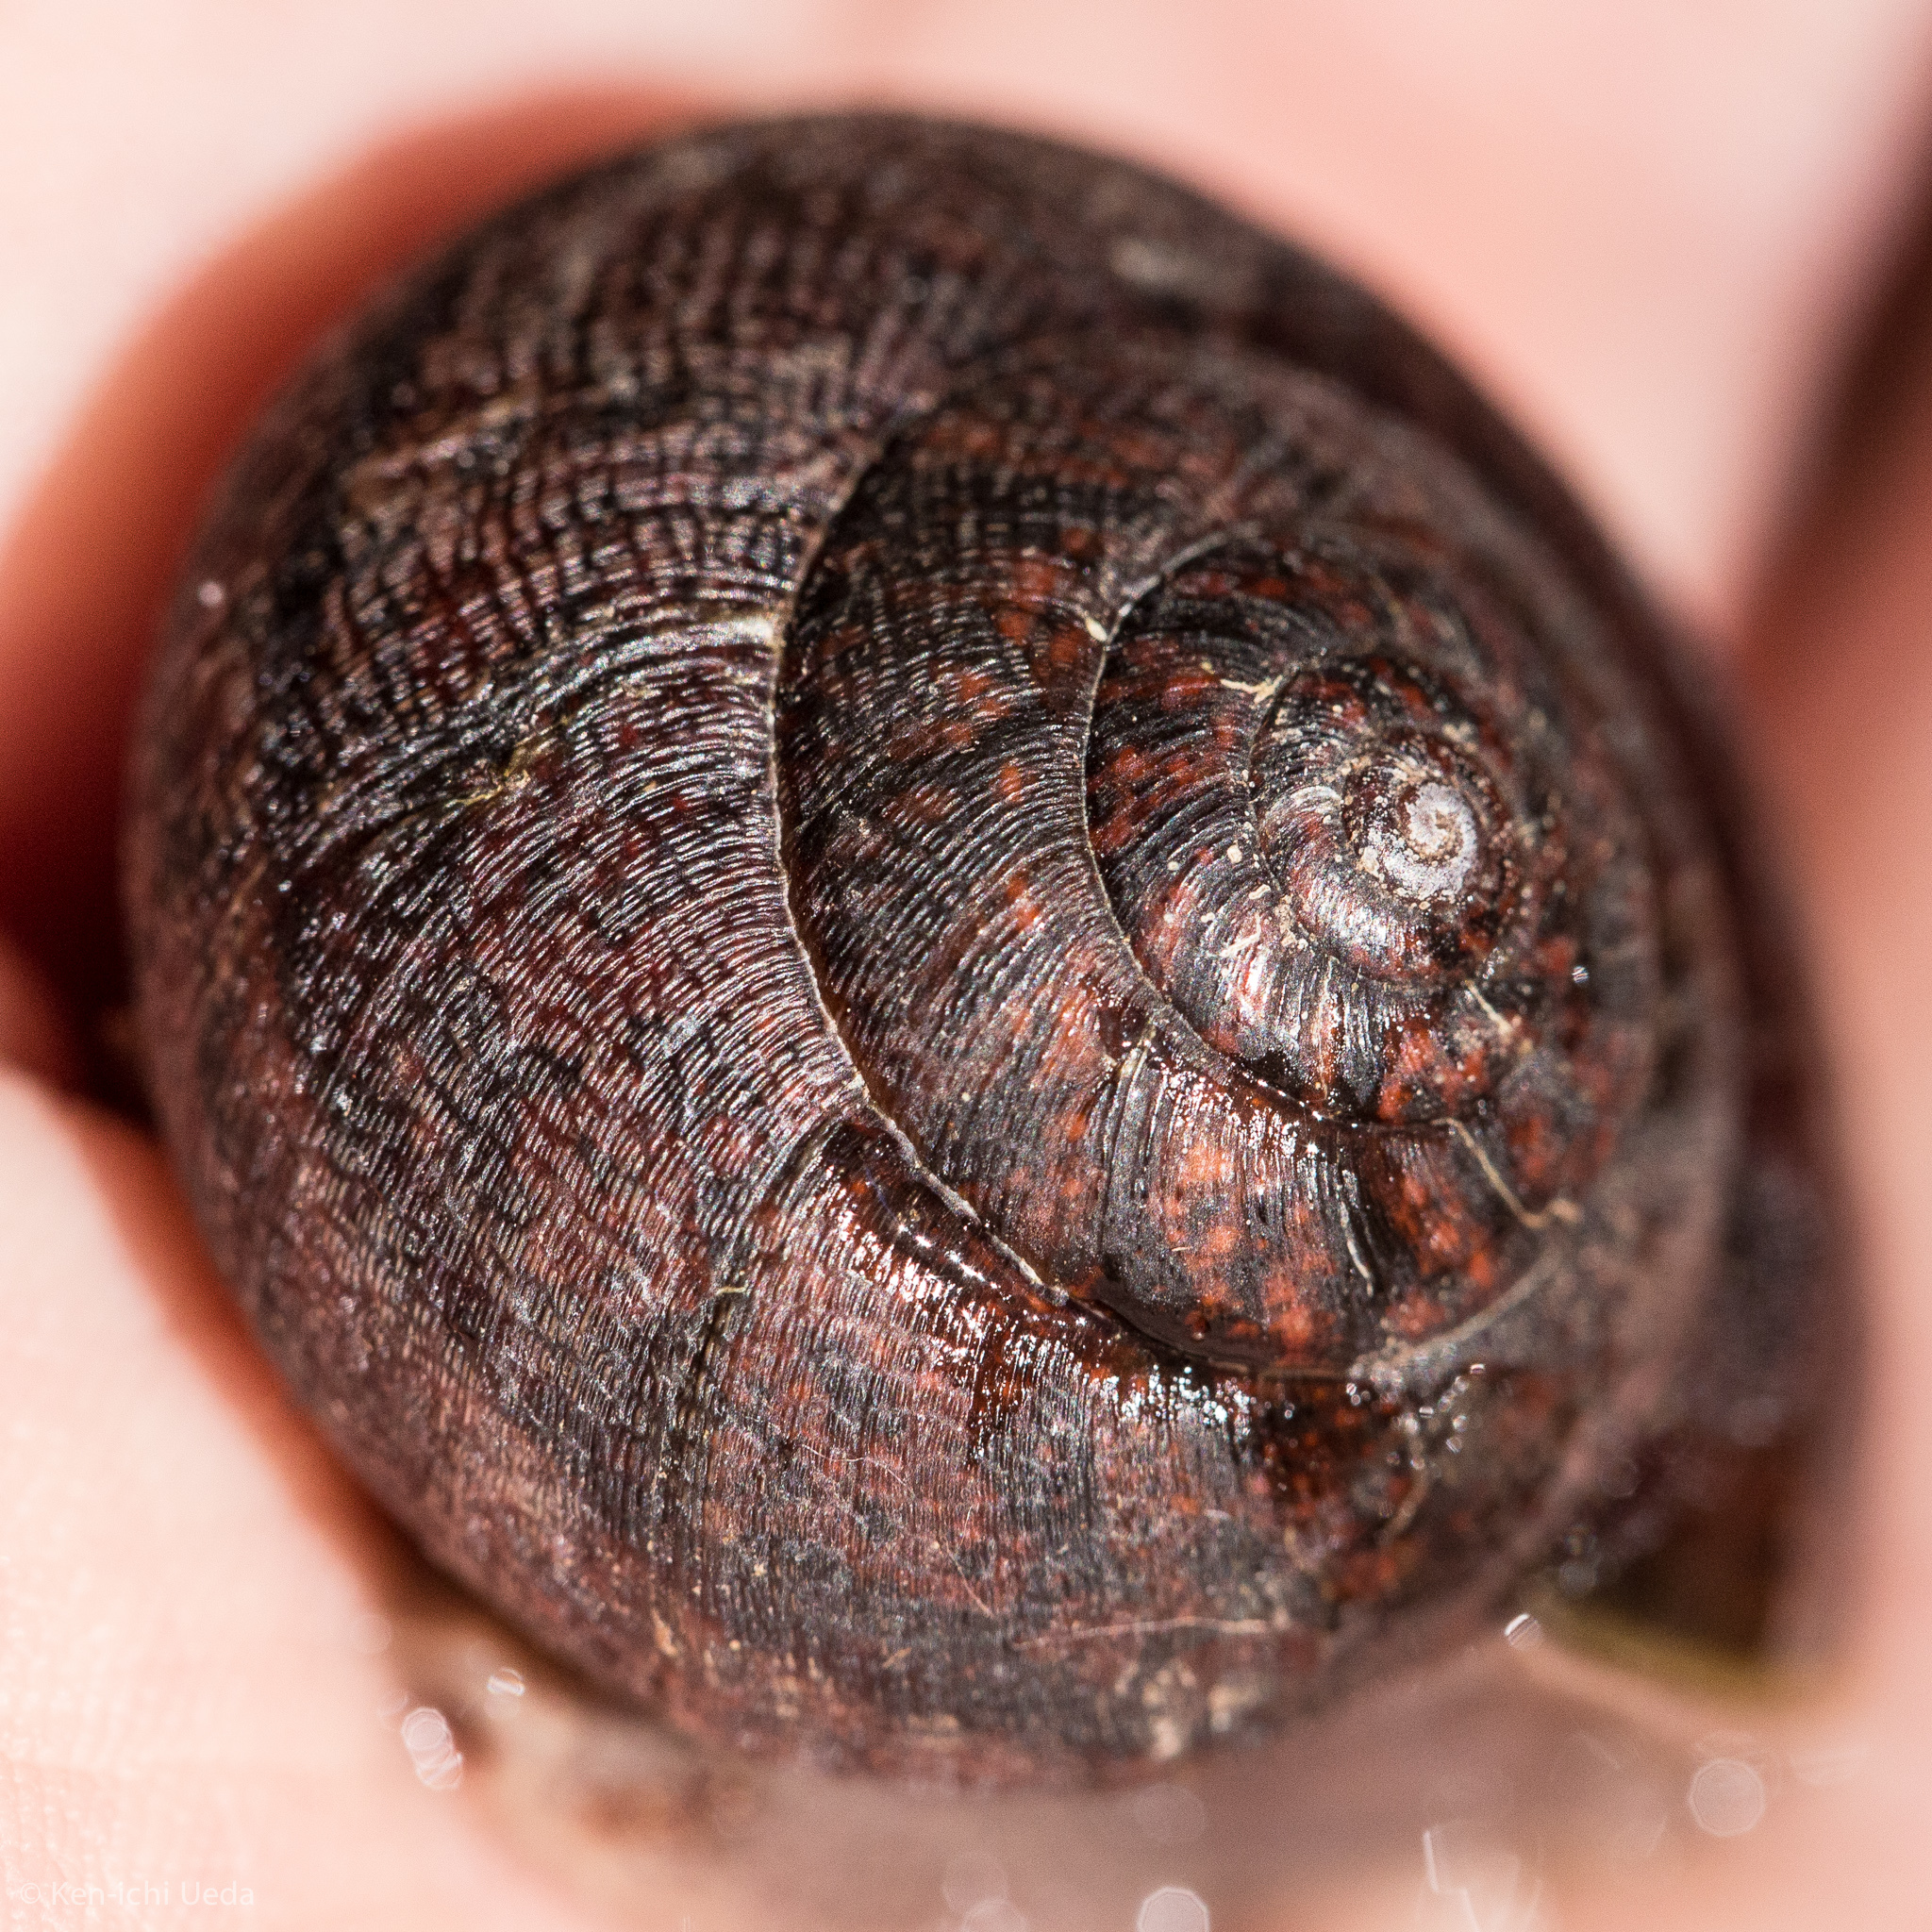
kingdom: Animalia
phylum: Mollusca
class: Gastropoda
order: Stylommatophora
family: Xanthonychidae
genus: Helminthoglypta
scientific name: Helminthoglypta nickliniana
